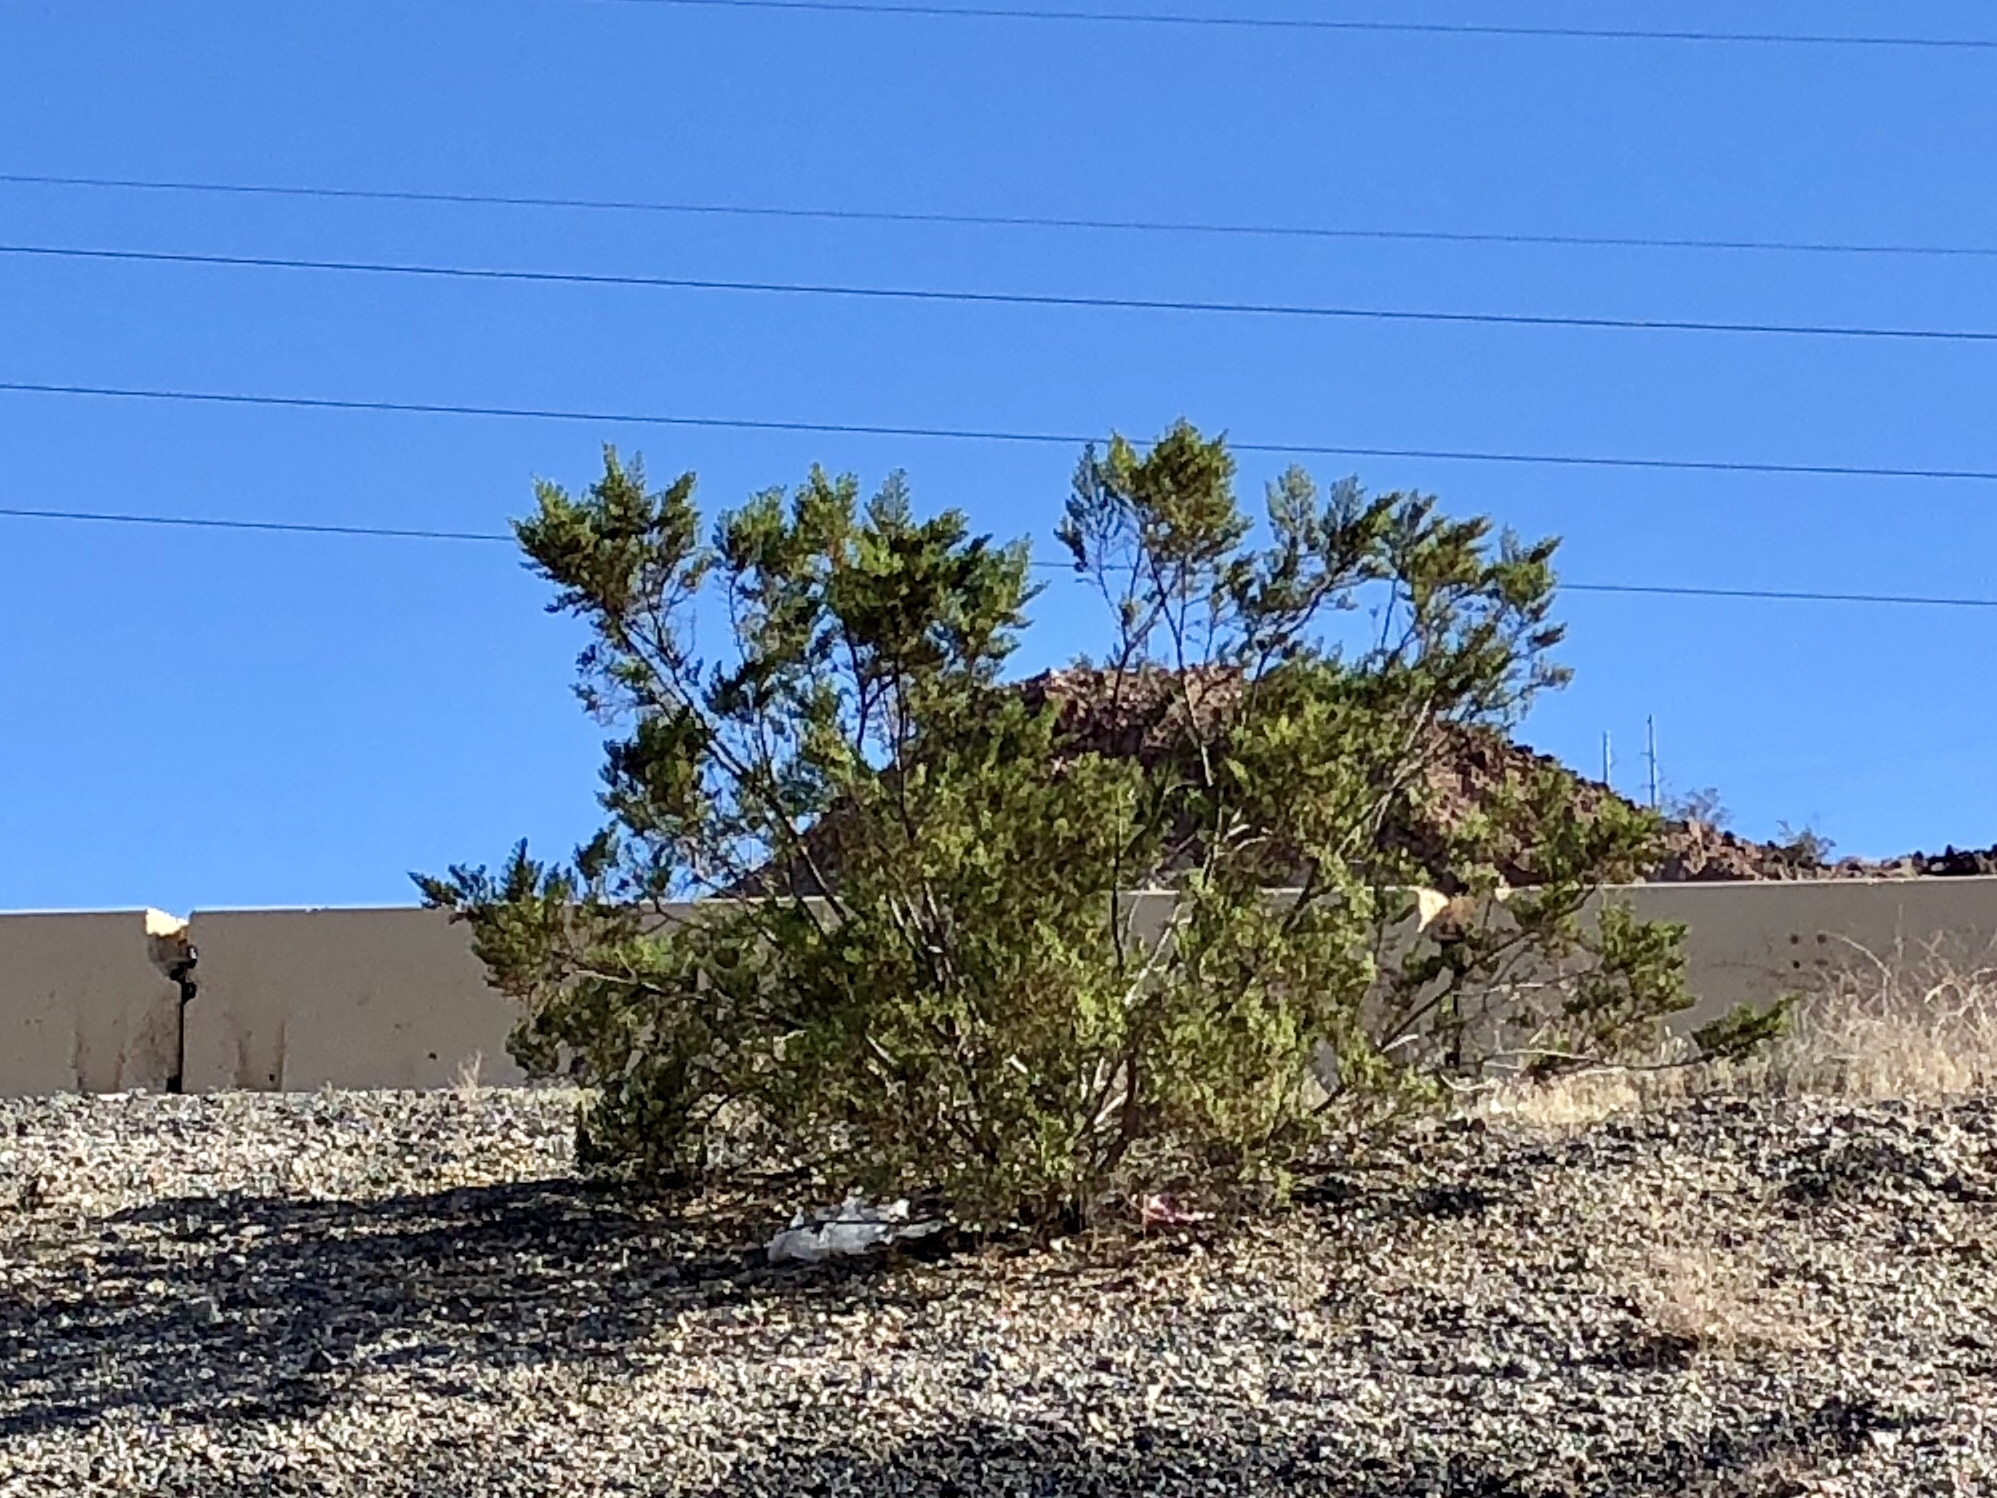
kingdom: Plantae
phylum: Tracheophyta
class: Magnoliopsida
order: Zygophyllales
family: Zygophyllaceae
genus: Larrea
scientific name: Larrea tridentata
